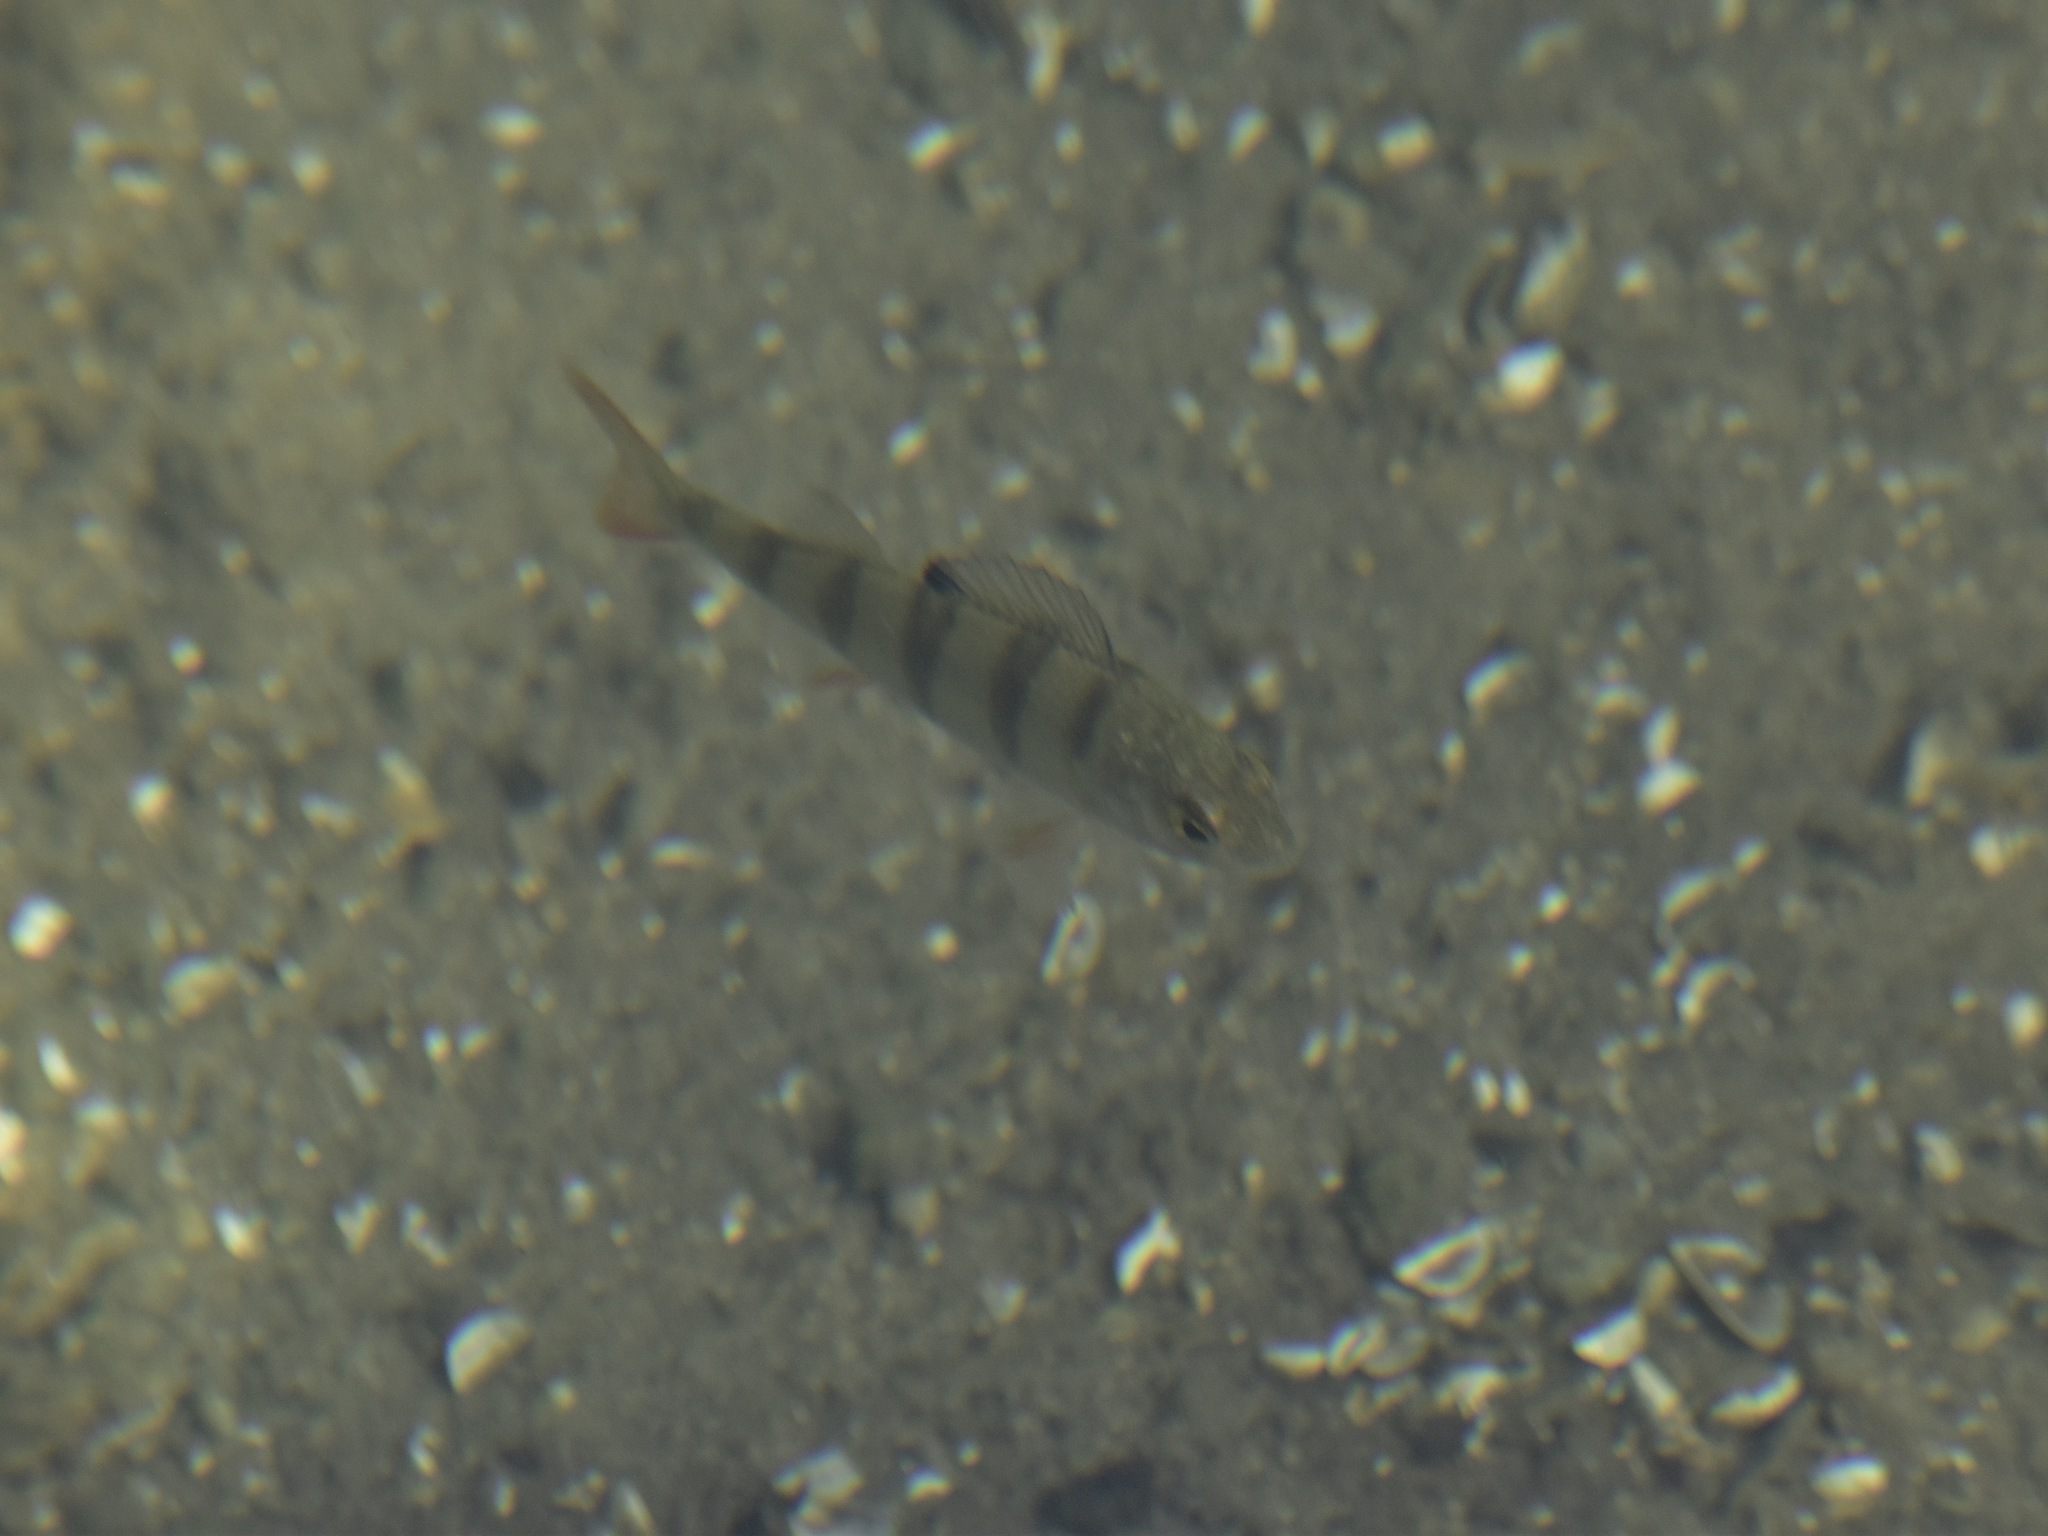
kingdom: Animalia
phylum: Chordata
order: Perciformes
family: Percidae
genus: Perca
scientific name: Perca fluviatilis
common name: Perch
